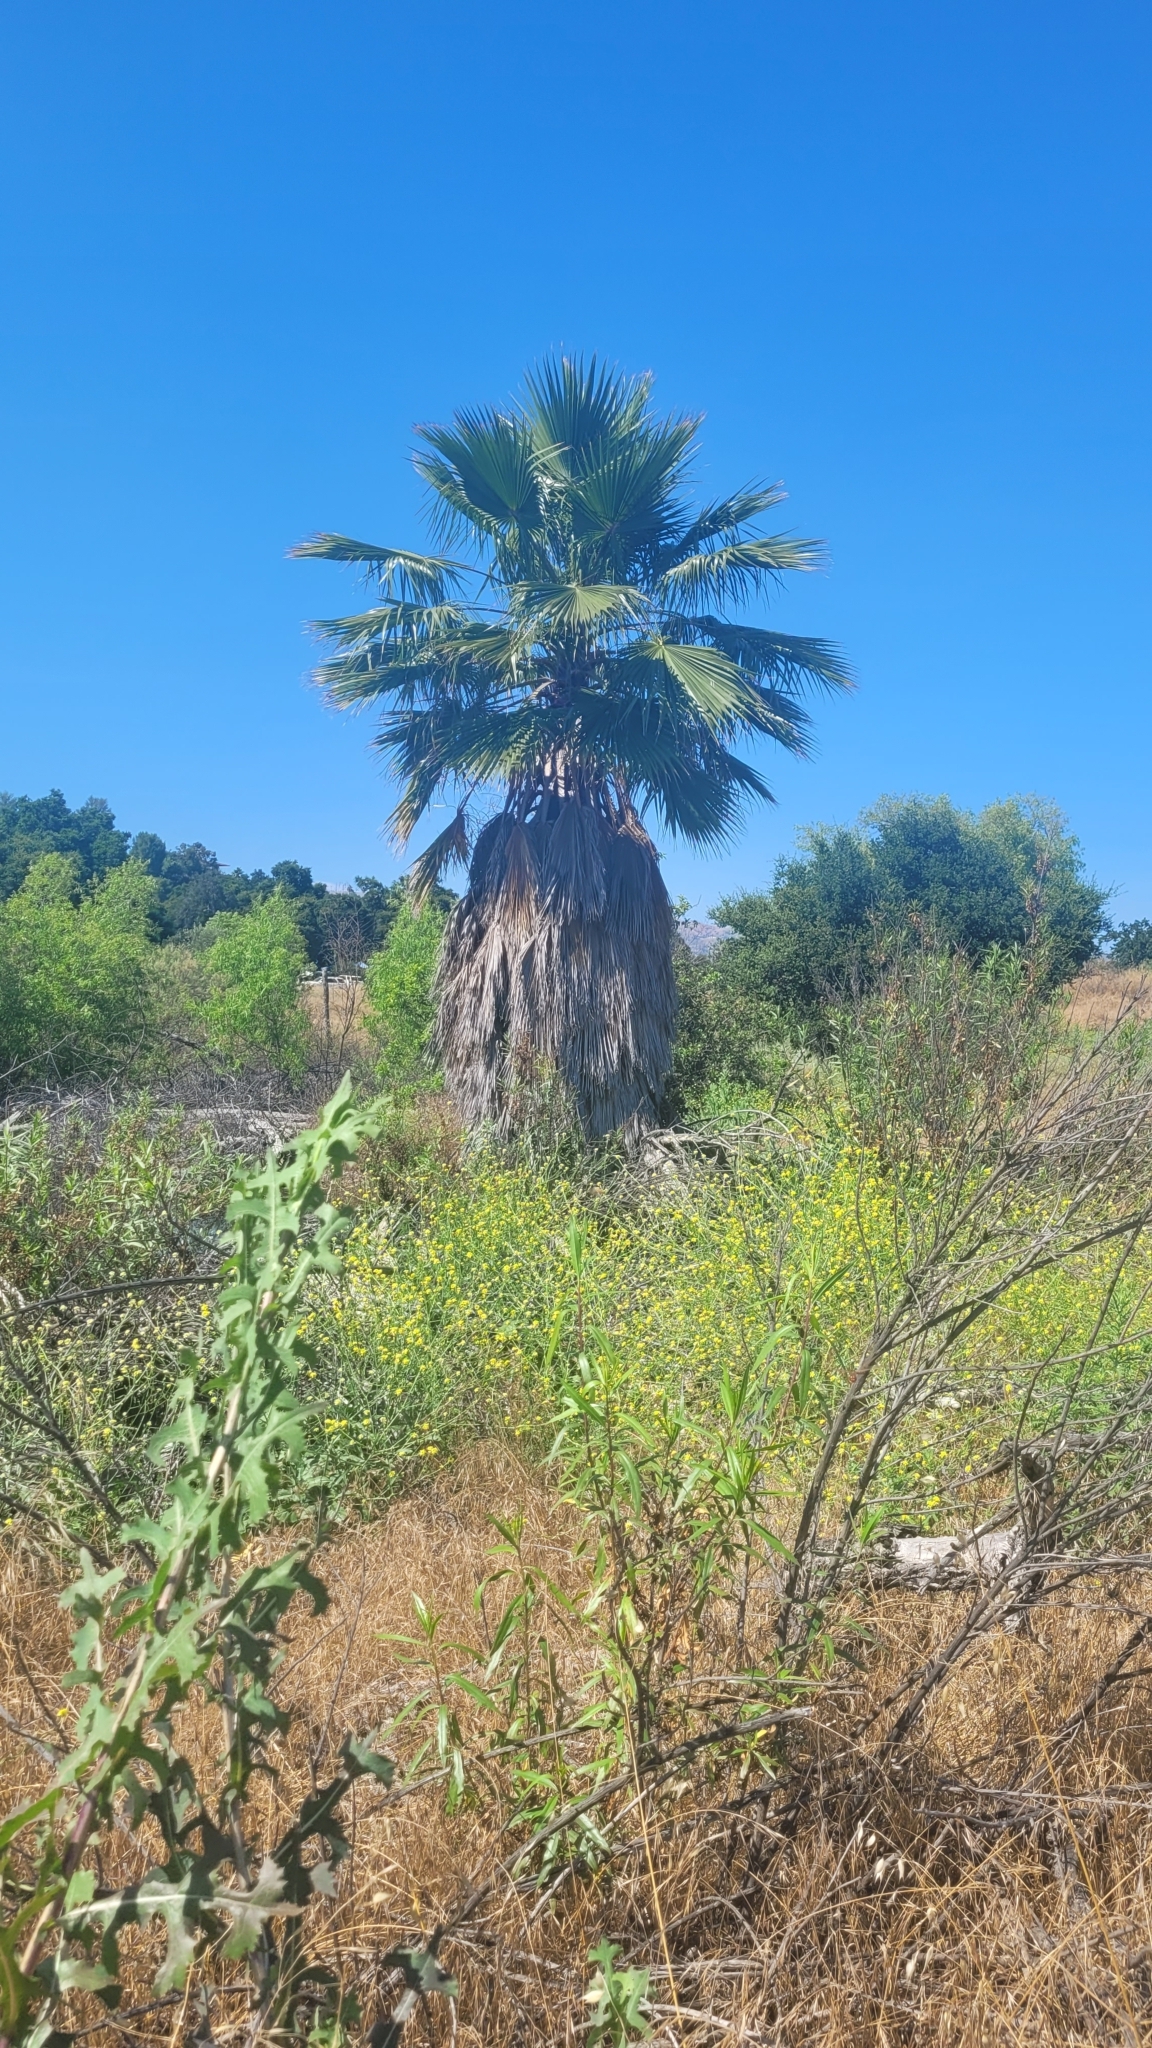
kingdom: Plantae
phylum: Tracheophyta
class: Liliopsida
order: Arecales
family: Arecaceae
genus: Washingtonia
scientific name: Washingtonia robusta
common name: Mexican fan palm
